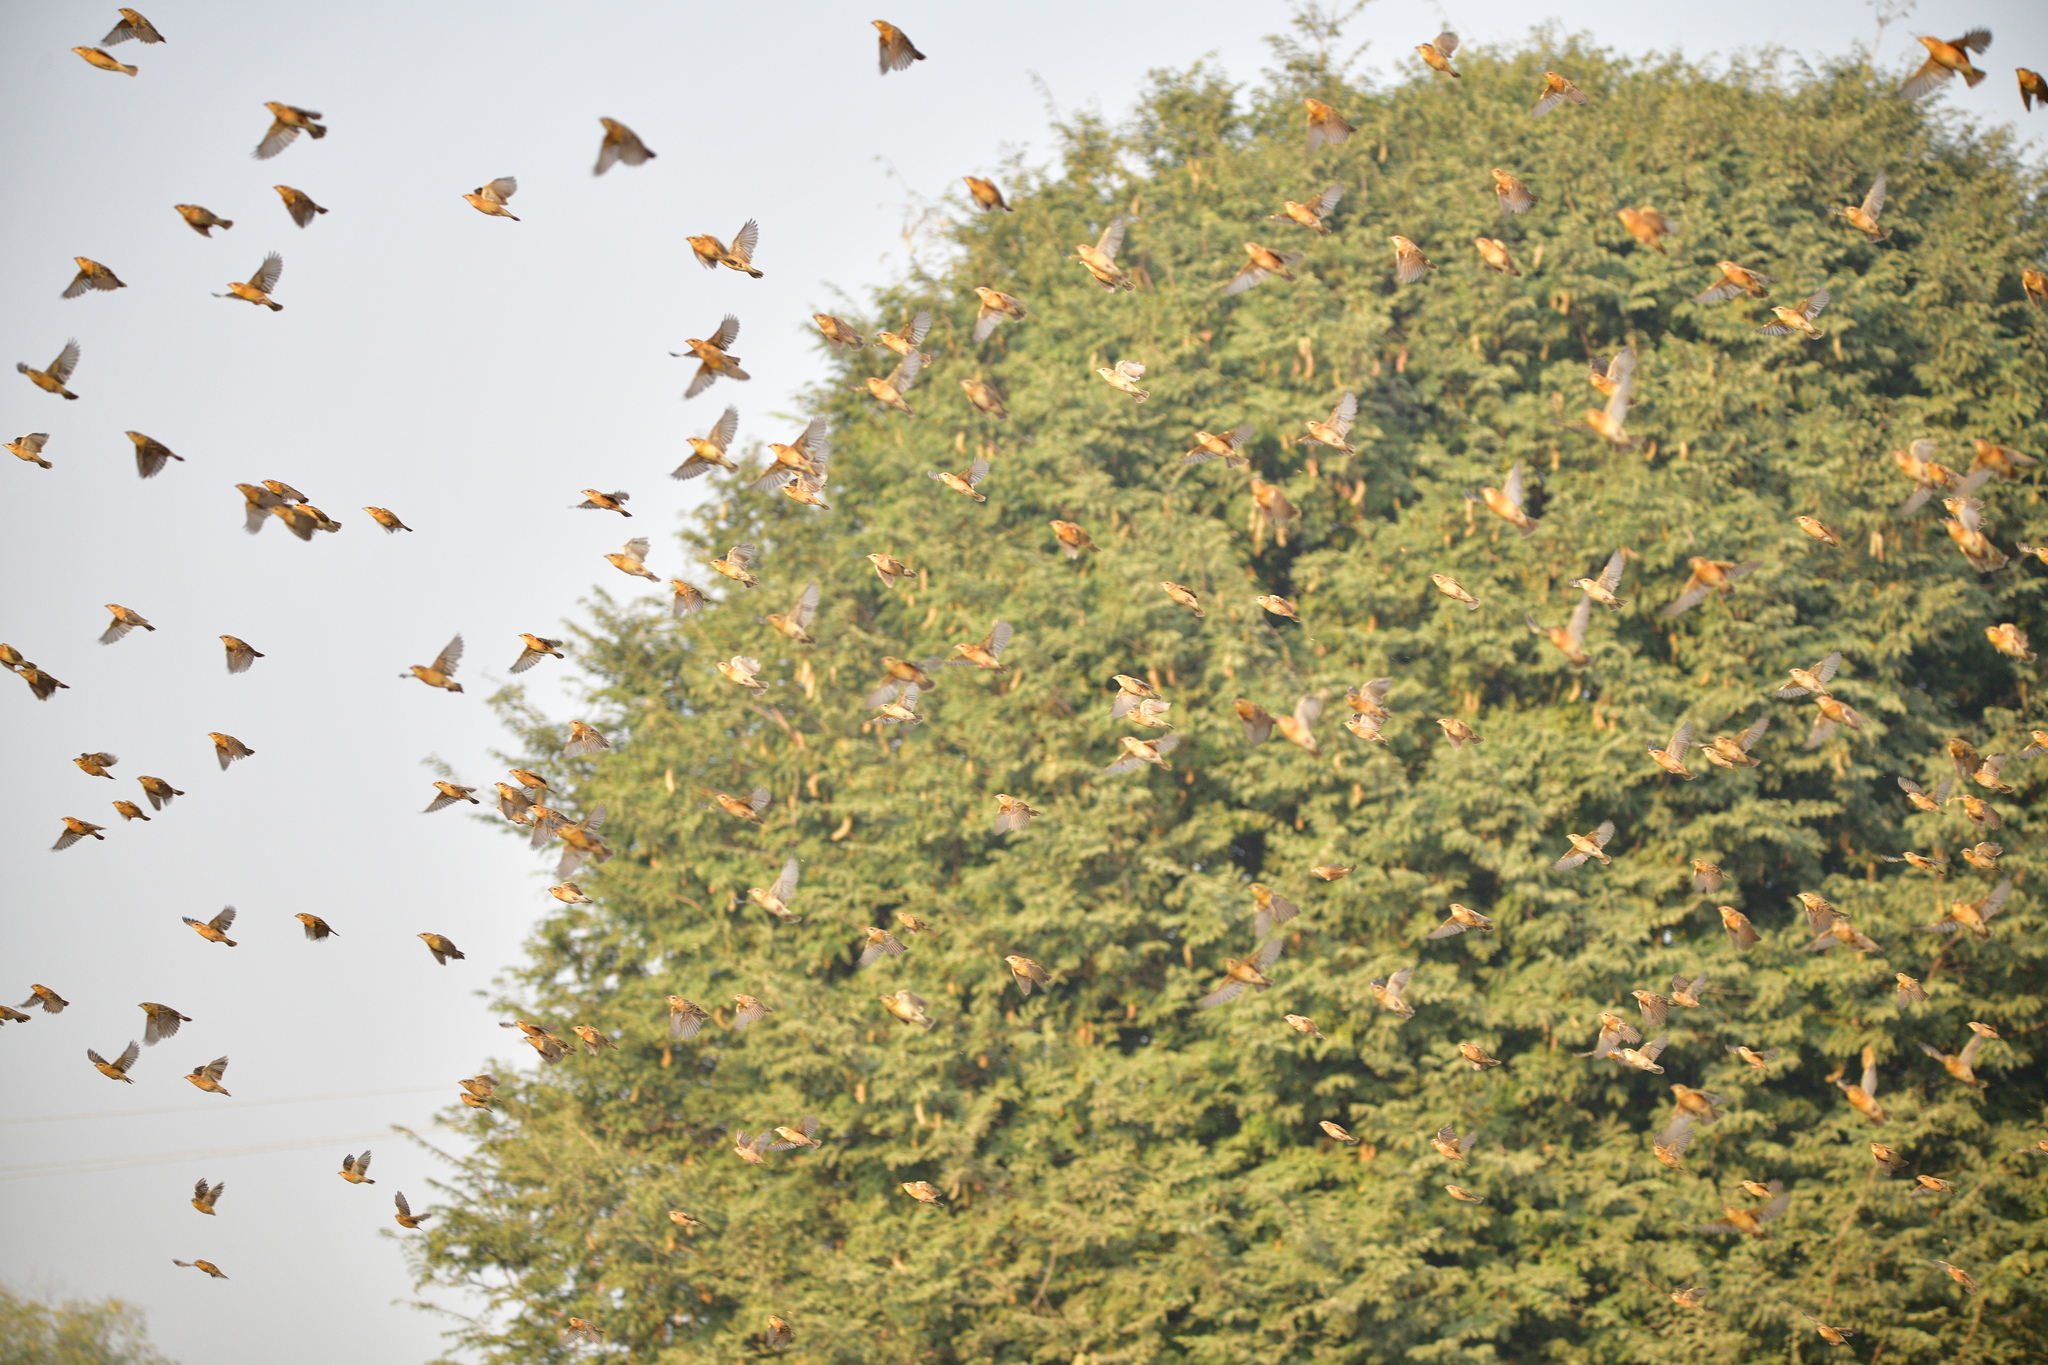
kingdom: Animalia
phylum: Chordata
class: Aves
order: Passeriformes
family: Ploceidae
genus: Ploceus
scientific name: Ploceus philippinus
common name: Baya weaver
